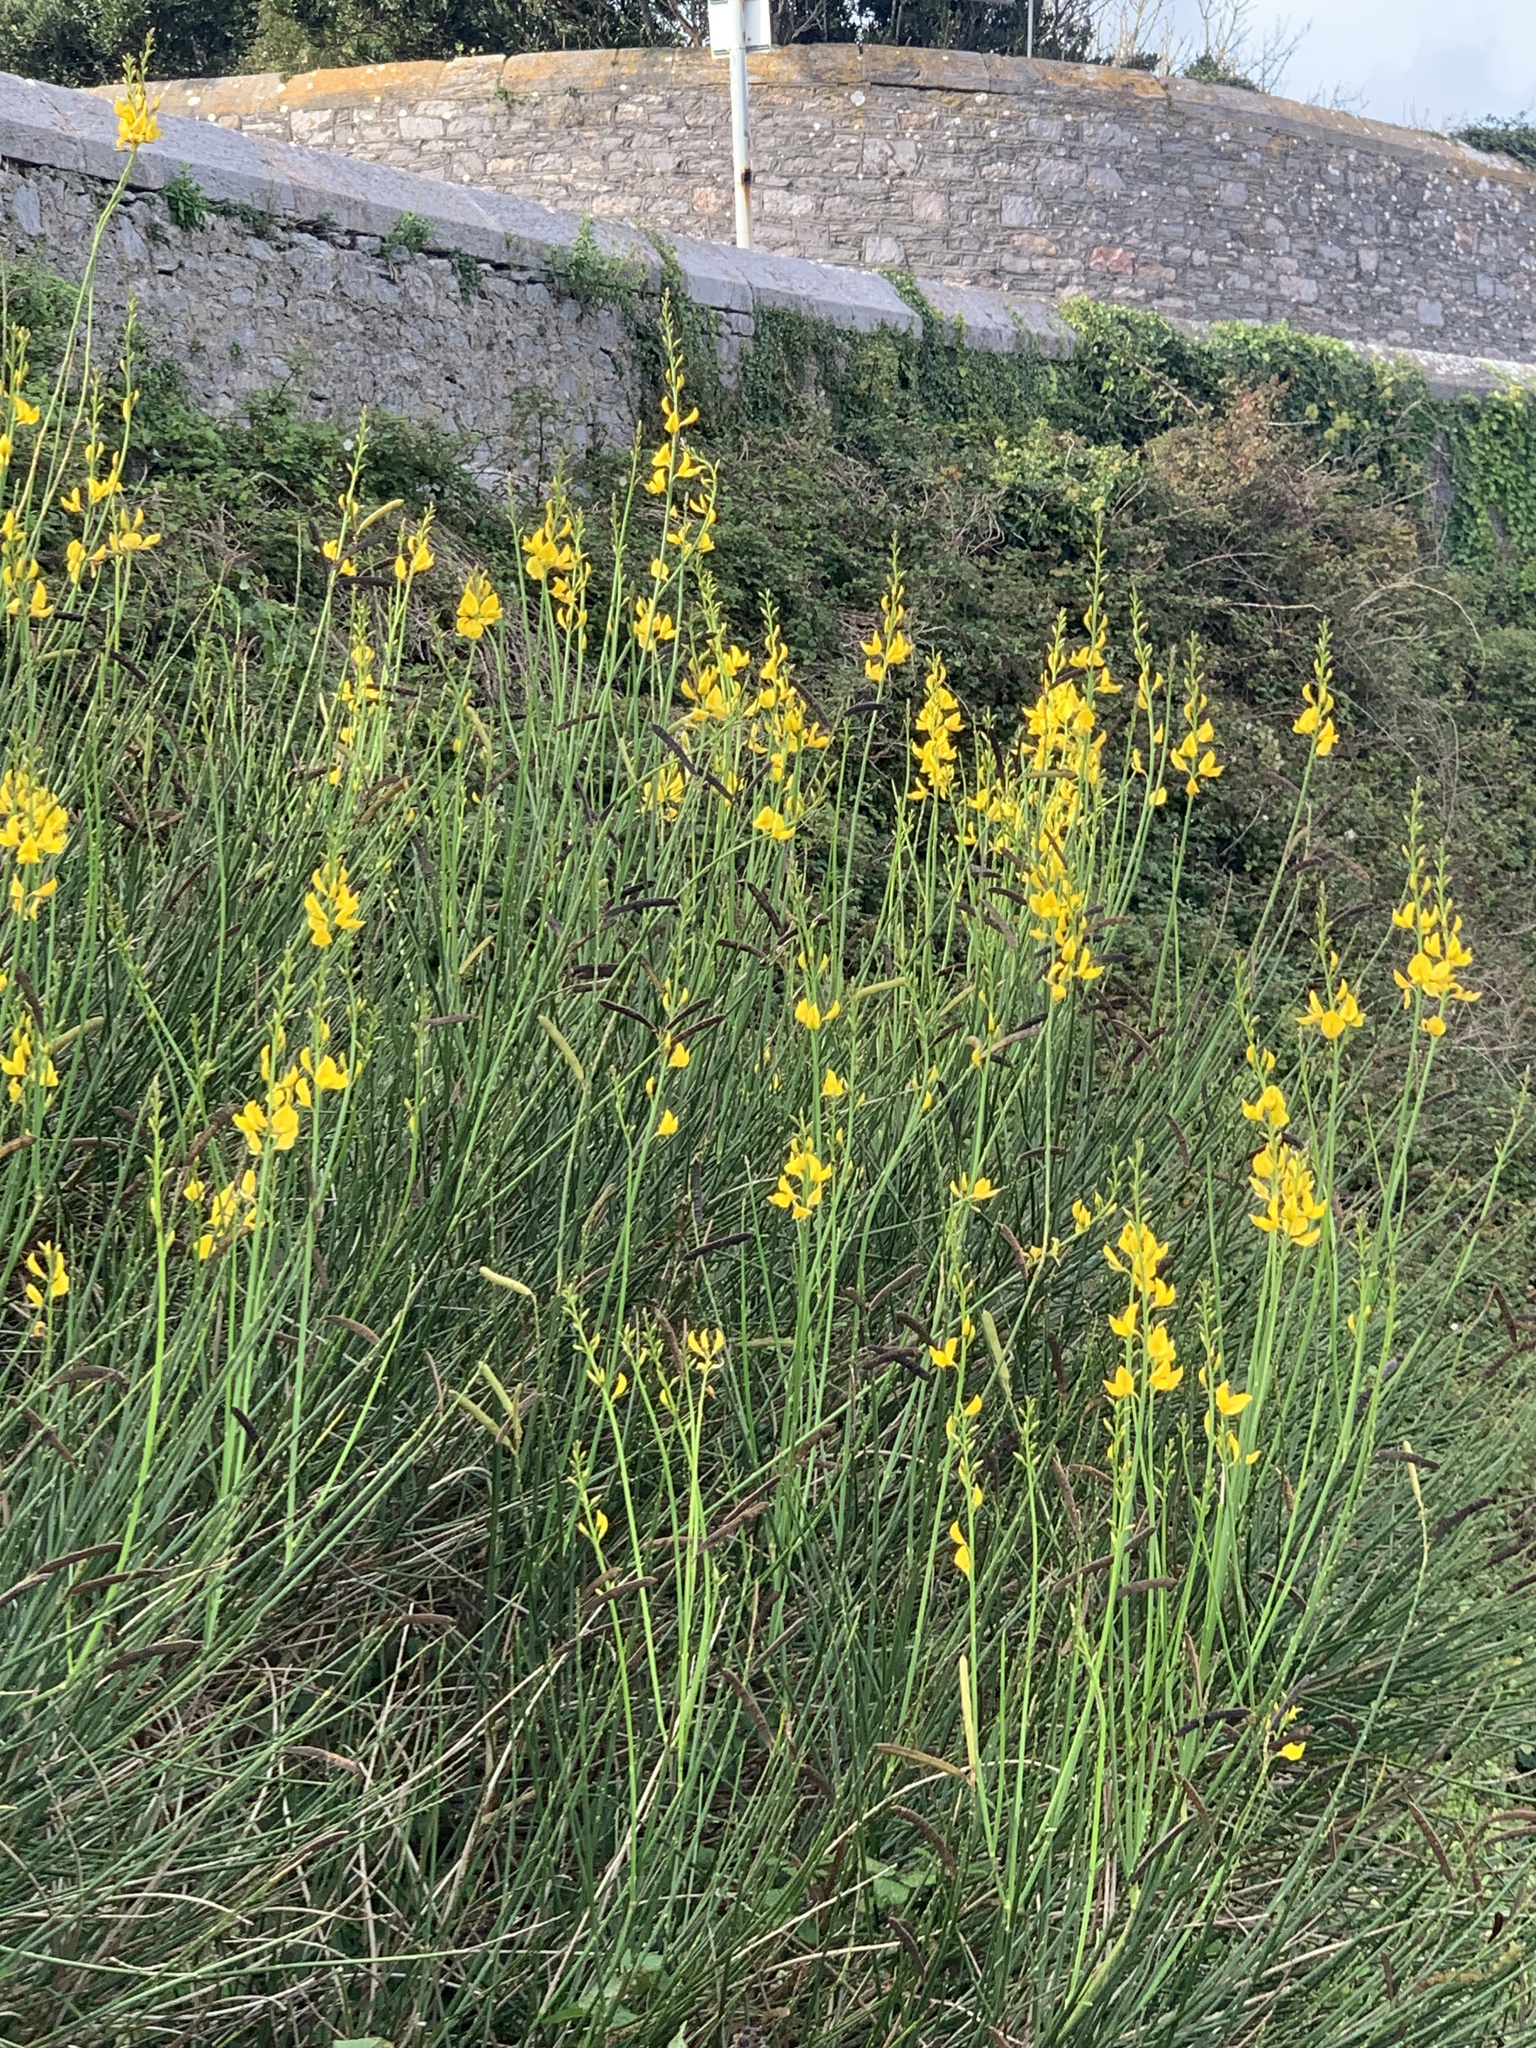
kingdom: Plantae
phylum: Tracheophyta
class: Magnoliopsida
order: Fabales
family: Fabaceae
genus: Spartium
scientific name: Spartium junceum
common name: Spanish broom
